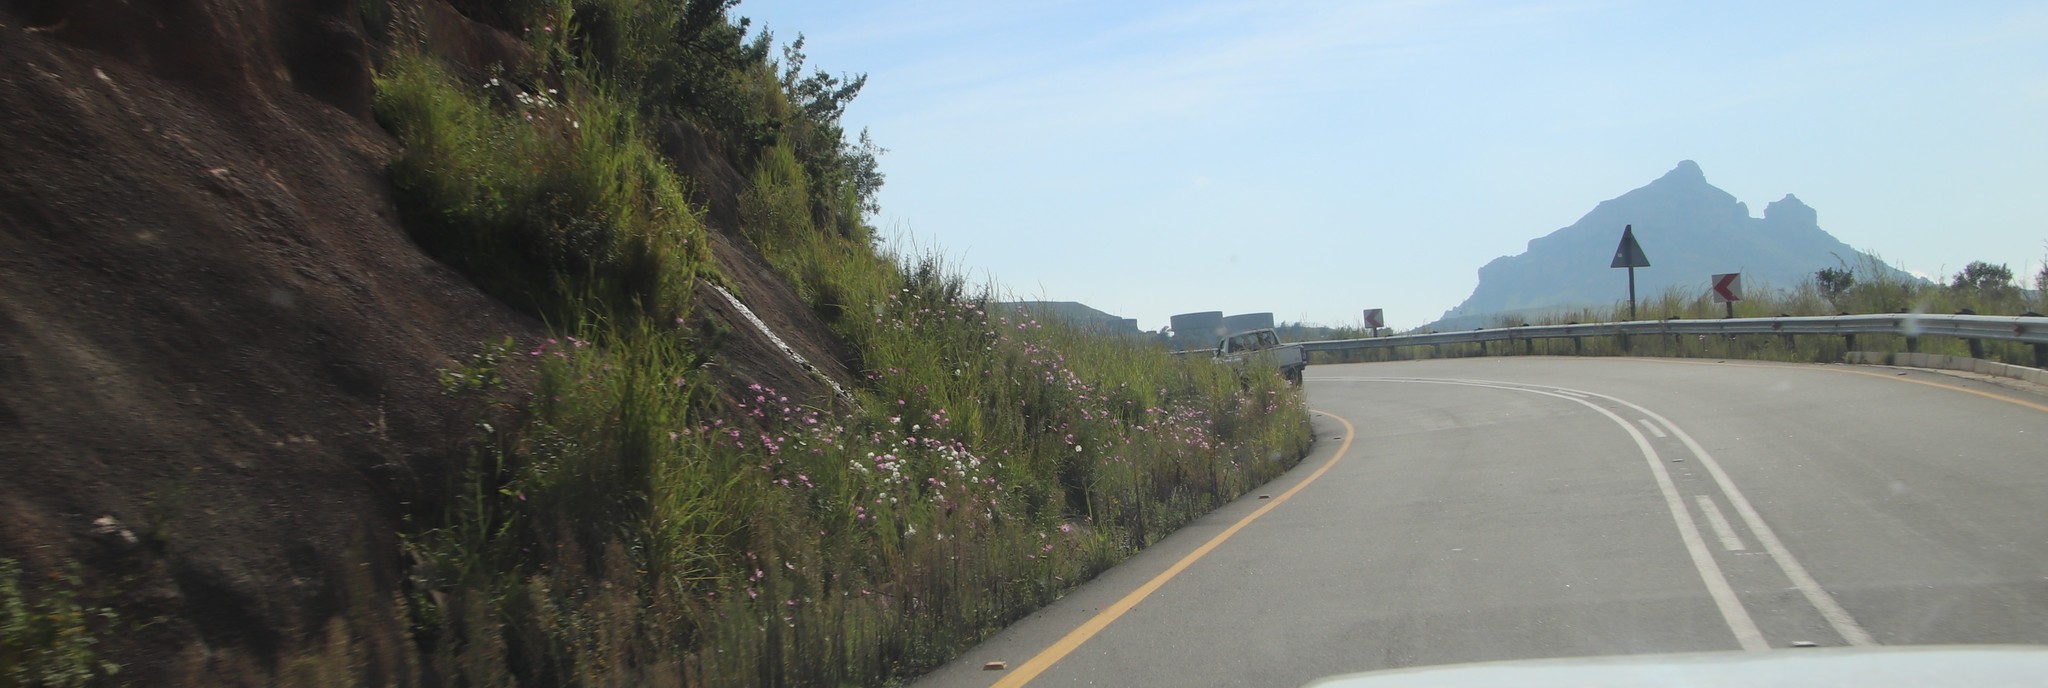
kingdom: Plantae
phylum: Tracheophyta
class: Magnoliopsida
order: Asterales
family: Asteraceae
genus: Cosmos
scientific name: Cosmos bipinnatus
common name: Garden cosmos
